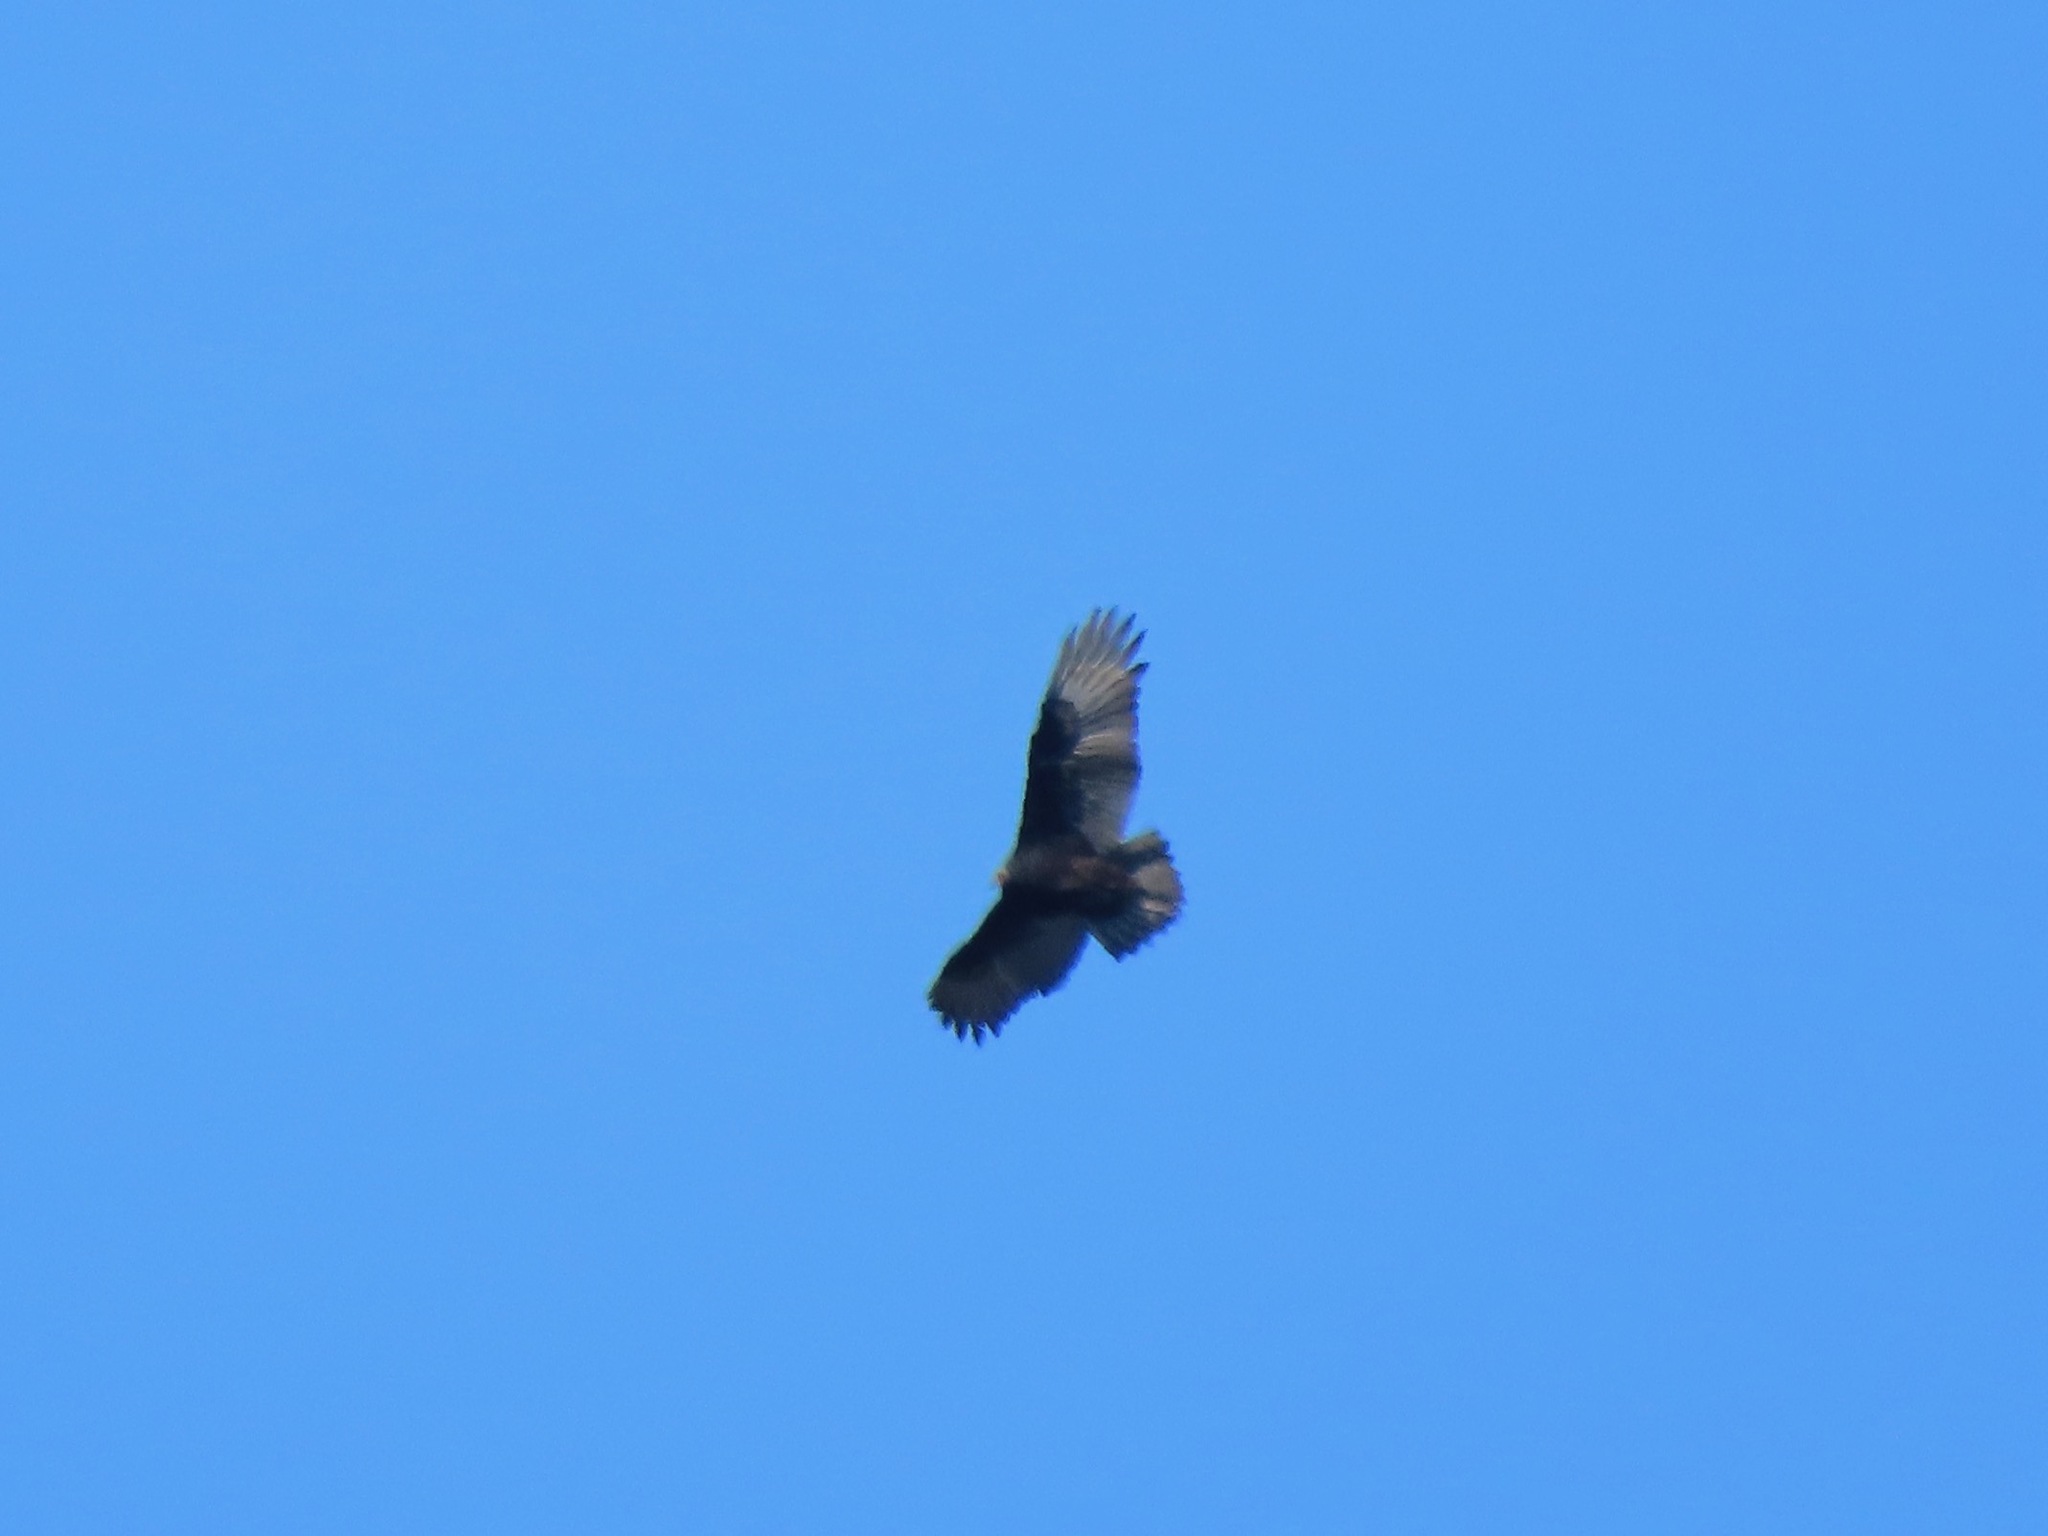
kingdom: Animalia
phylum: Chordata
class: Aves
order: Accipitriformes
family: Cathartidae
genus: Cathartes
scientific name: Cathartes aura
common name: Turkey vulture
